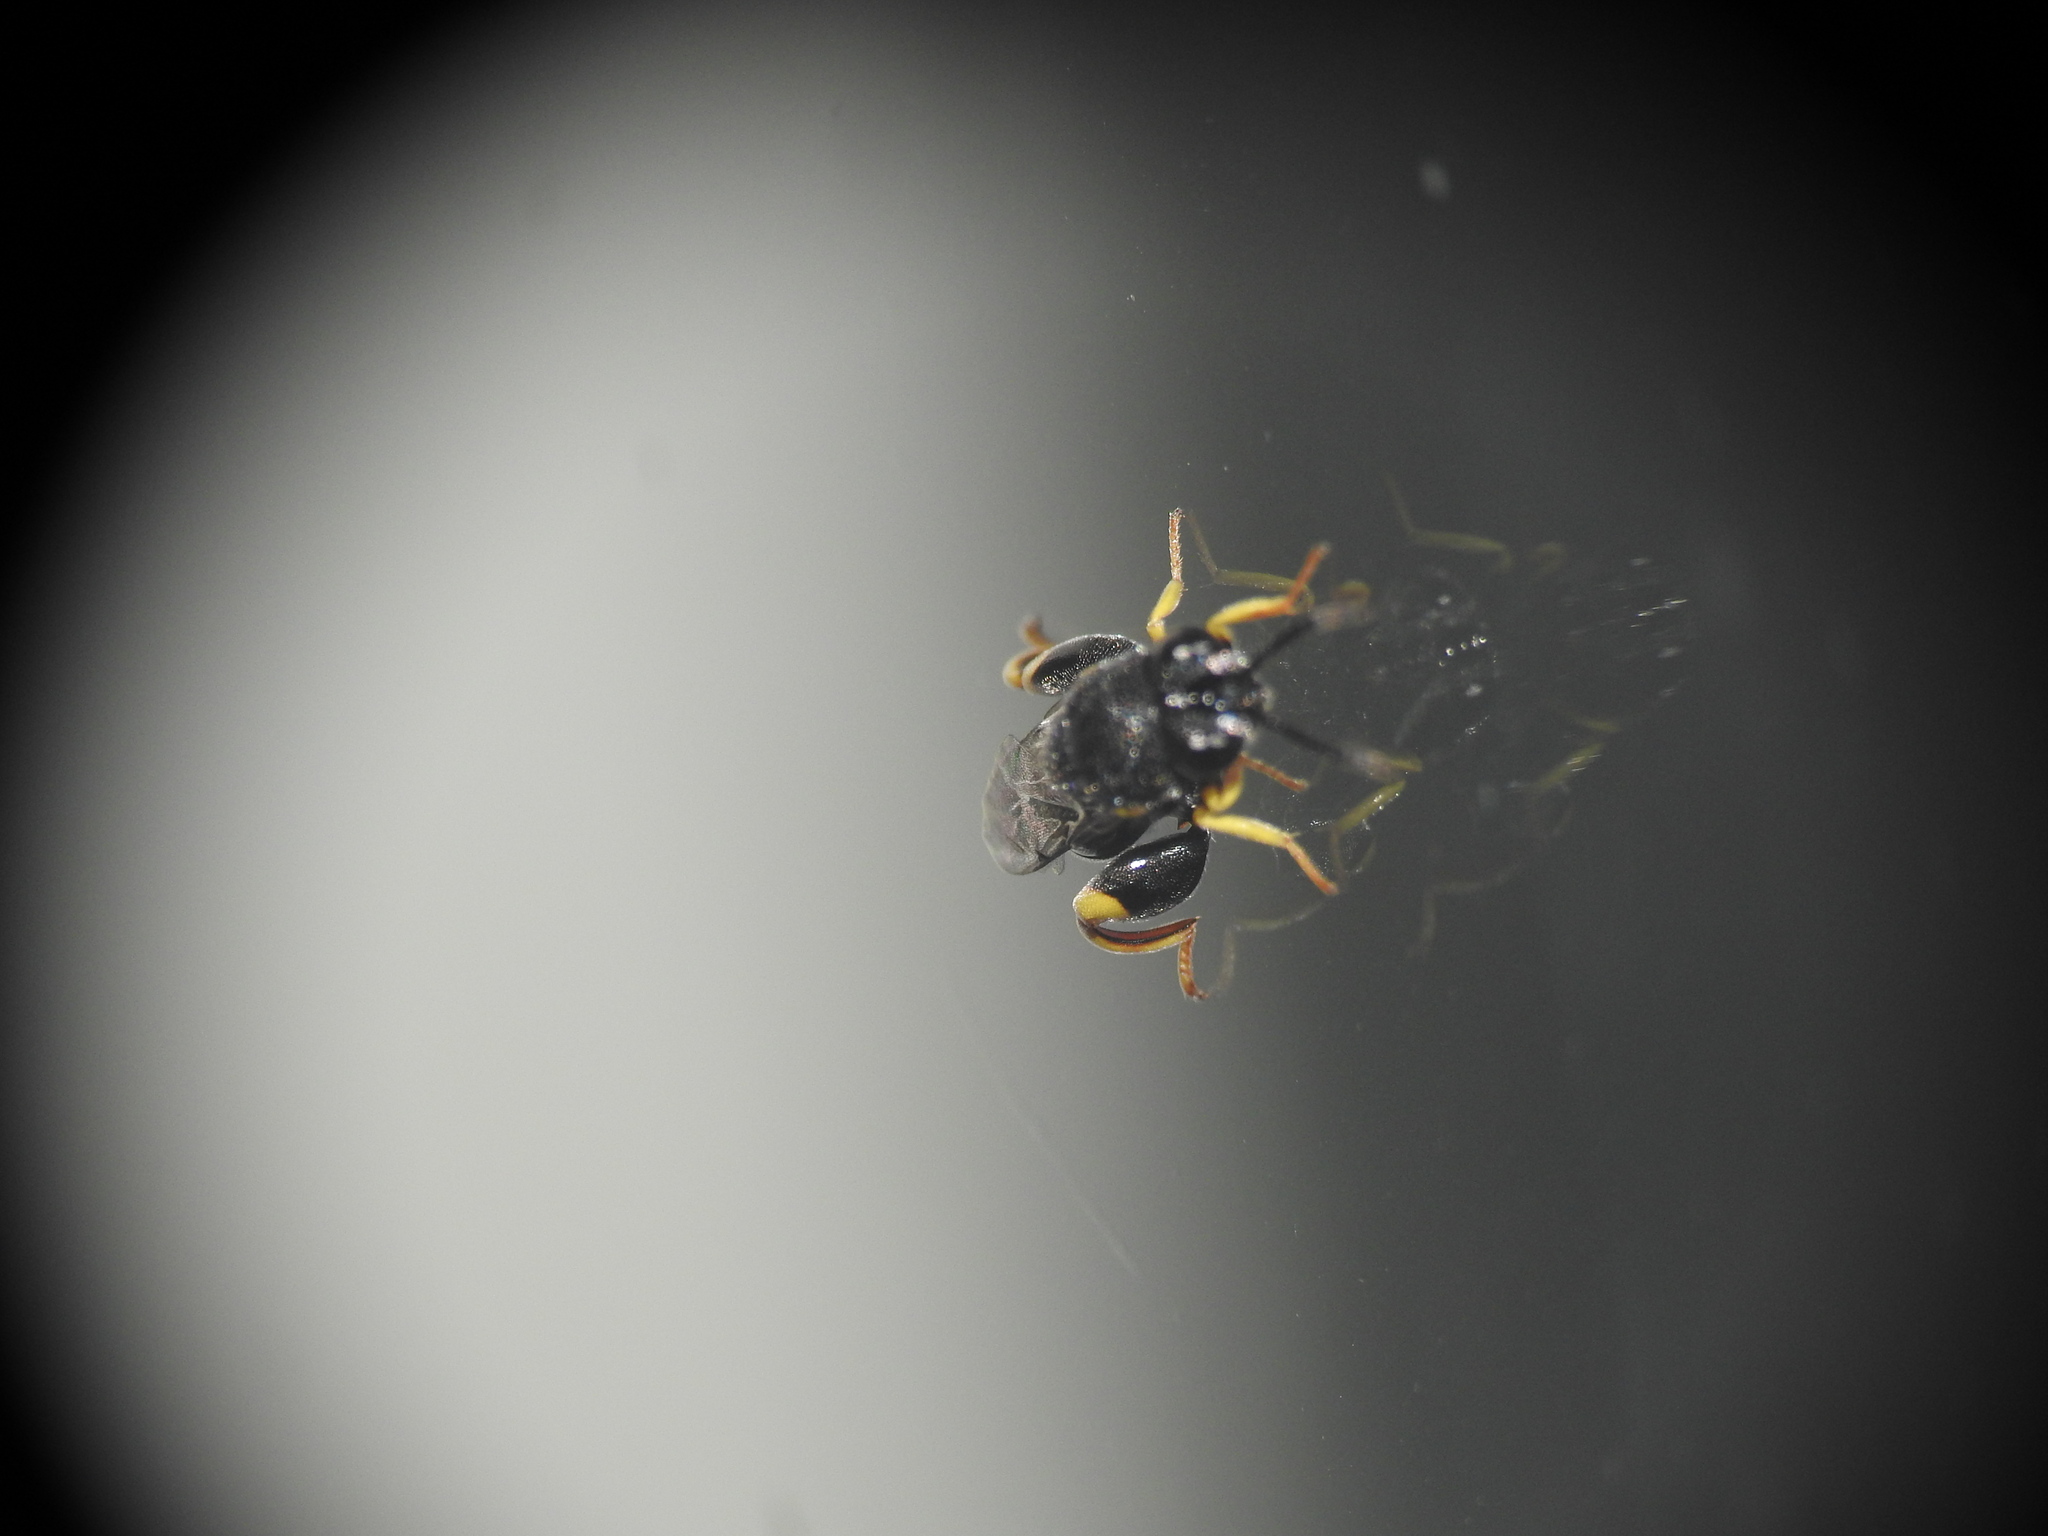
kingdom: Animalia
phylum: Arthropoda
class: Insecta
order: Hymenoptera
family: Chalcididae
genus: Brachymeria
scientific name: Brachymeria tibialis
